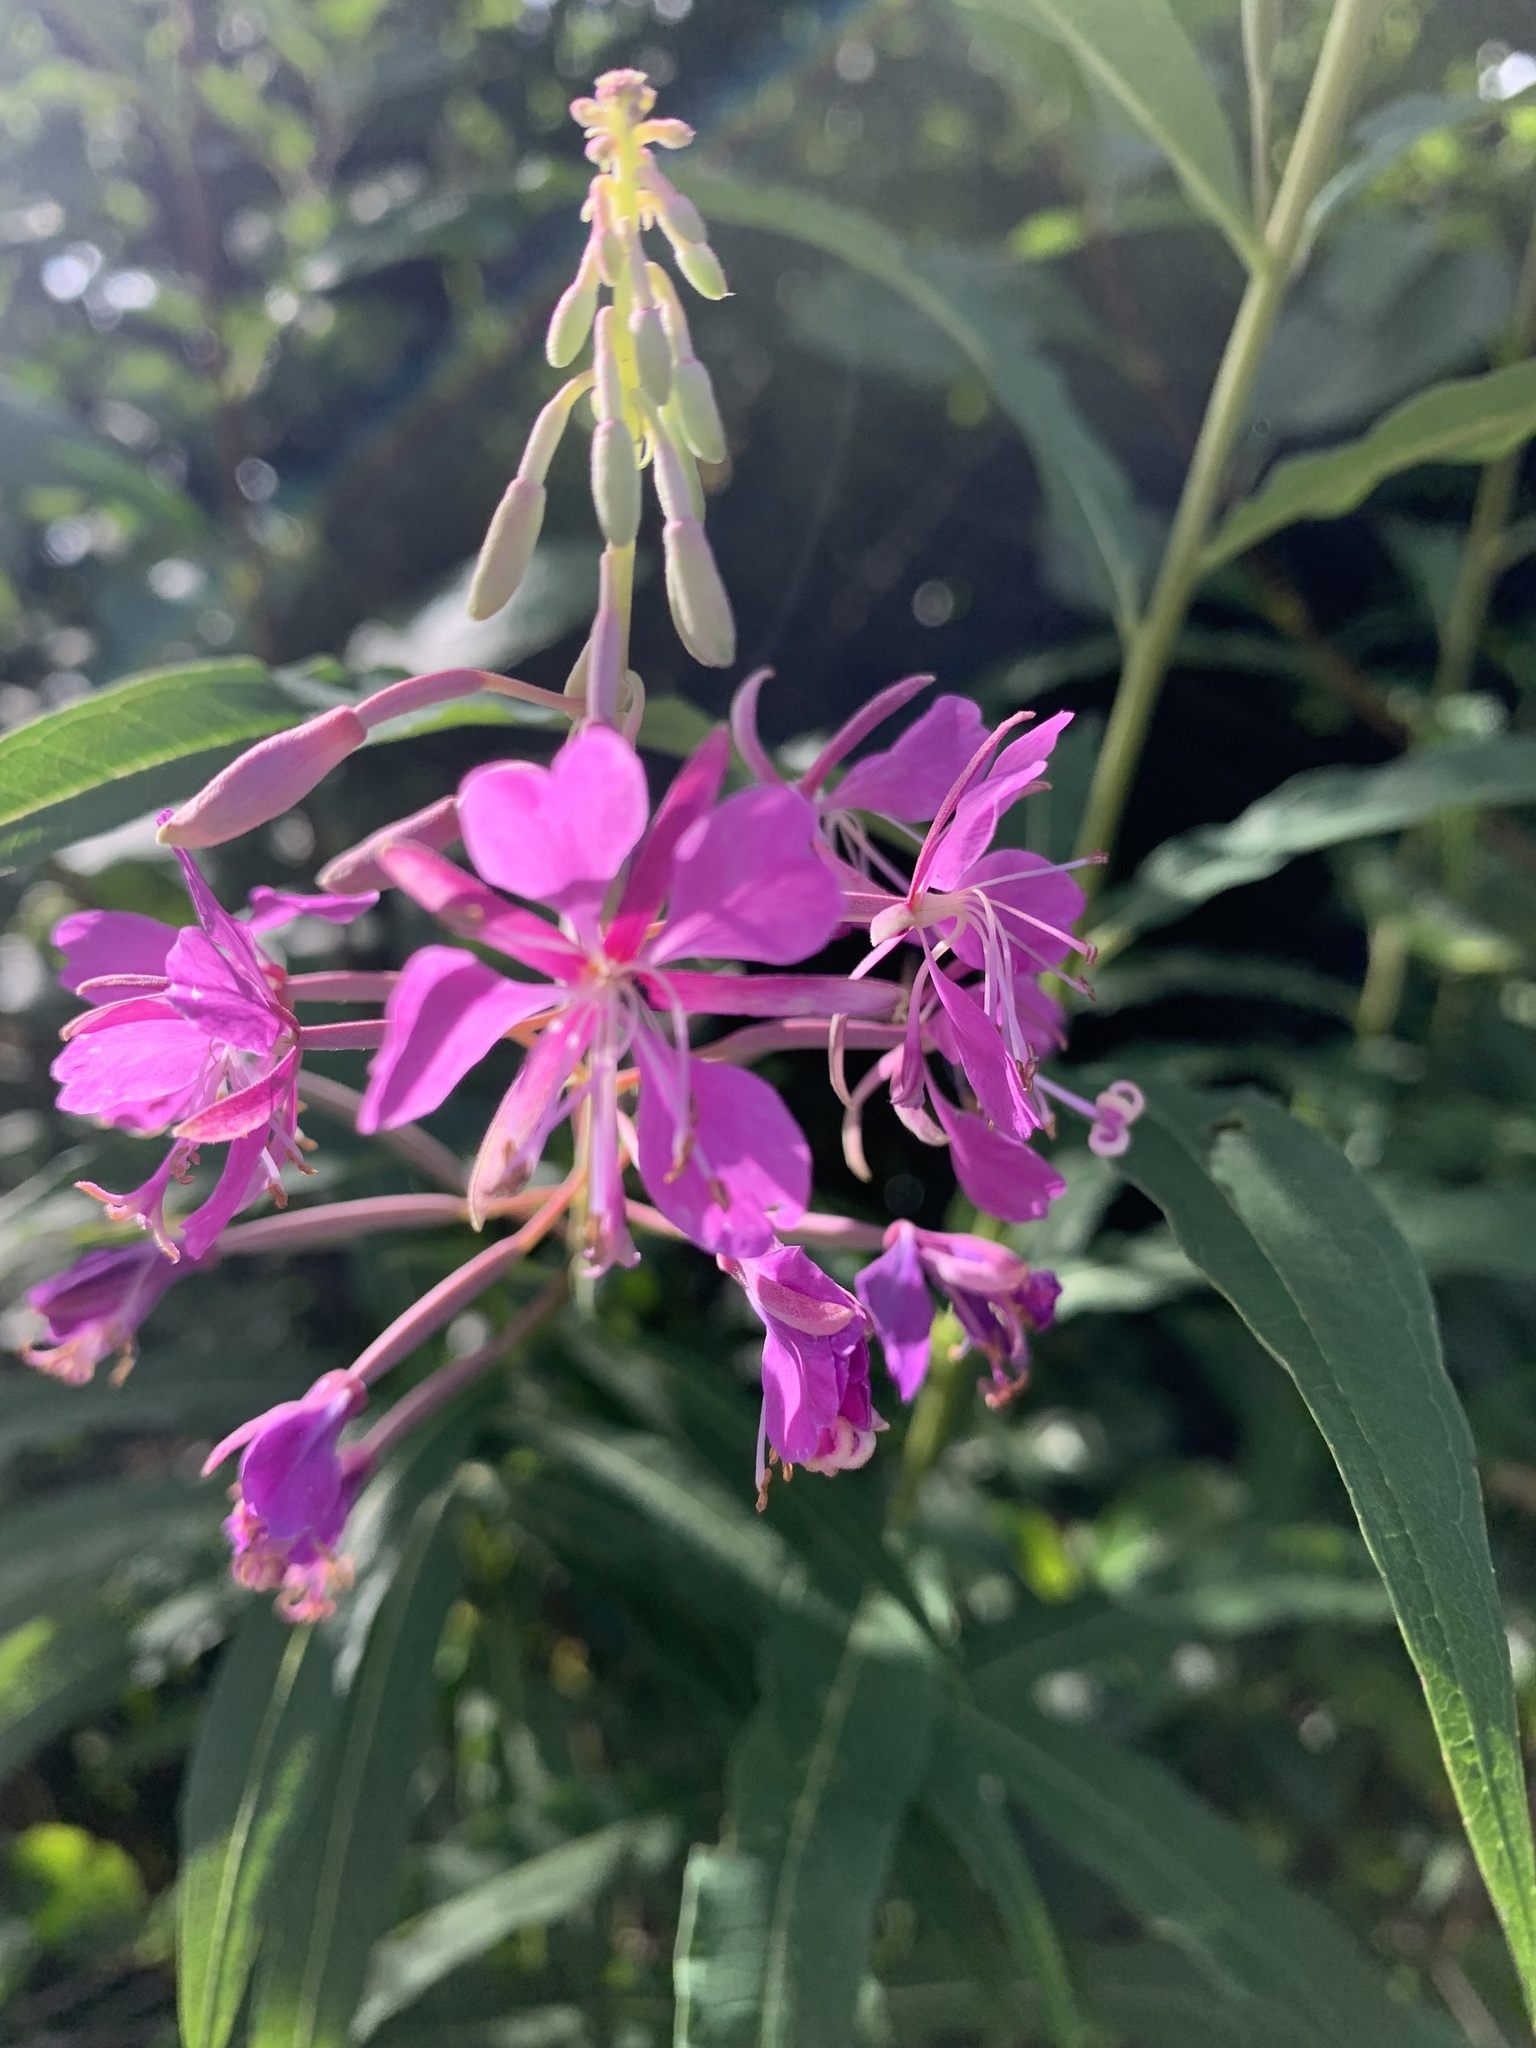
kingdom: Plantae
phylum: Tracheophyta
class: Magnoliopsida
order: Myrtales
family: Onagraceae
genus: Chamaenerion
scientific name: Chamaenerion angustifolium
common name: Fireweed
